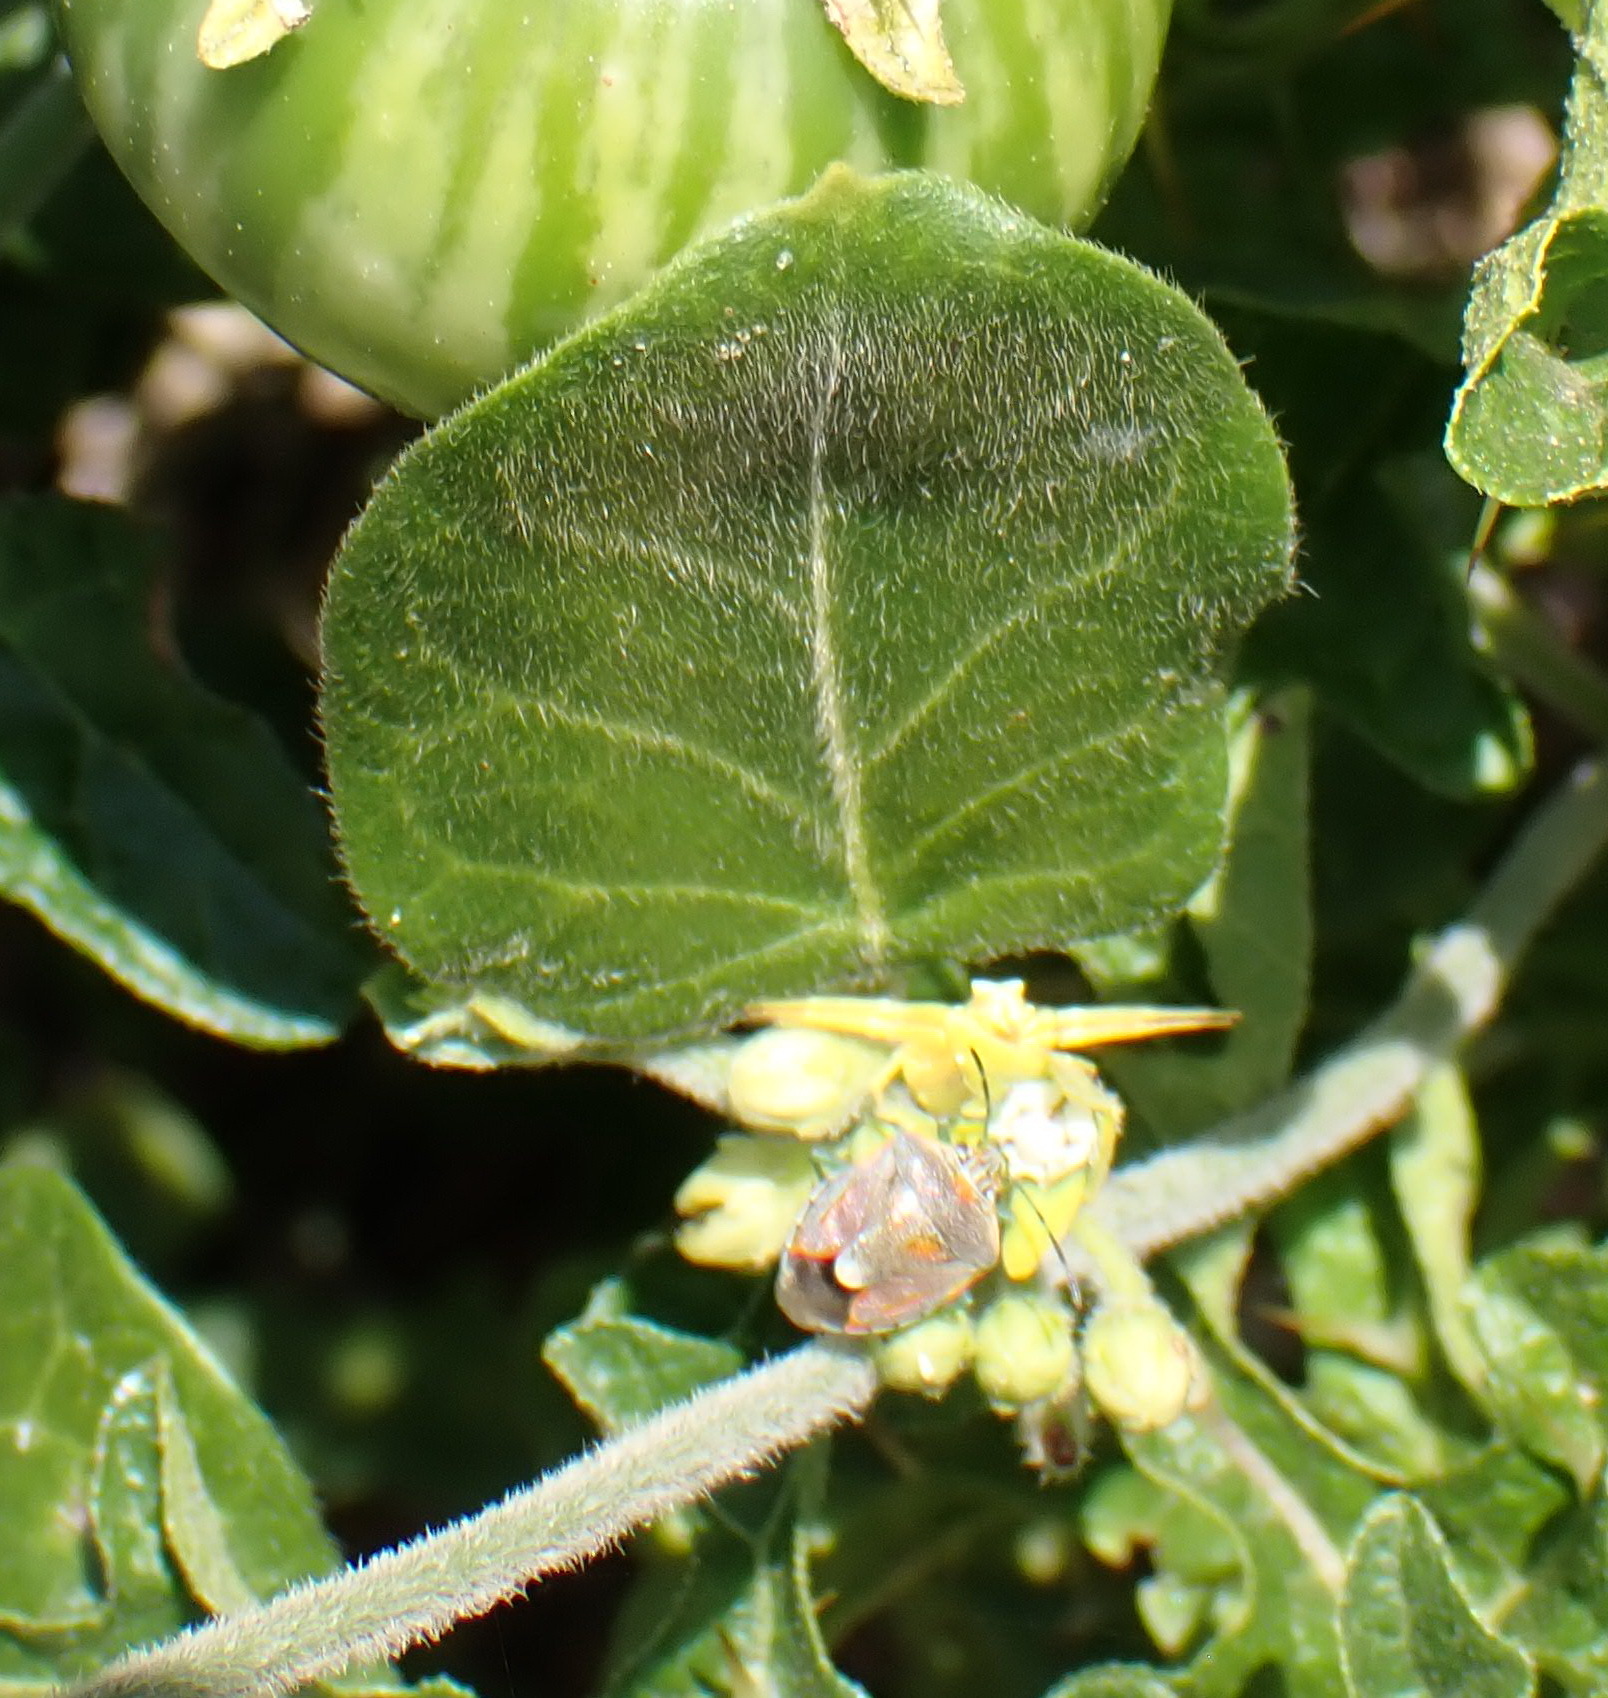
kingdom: Plantae
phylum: Tracheophyta
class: Magnoliopsida
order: Gentianales
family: Apocynaceae
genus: Cynanchum
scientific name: Cynanchum obtusifolium
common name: Monkey-rope
